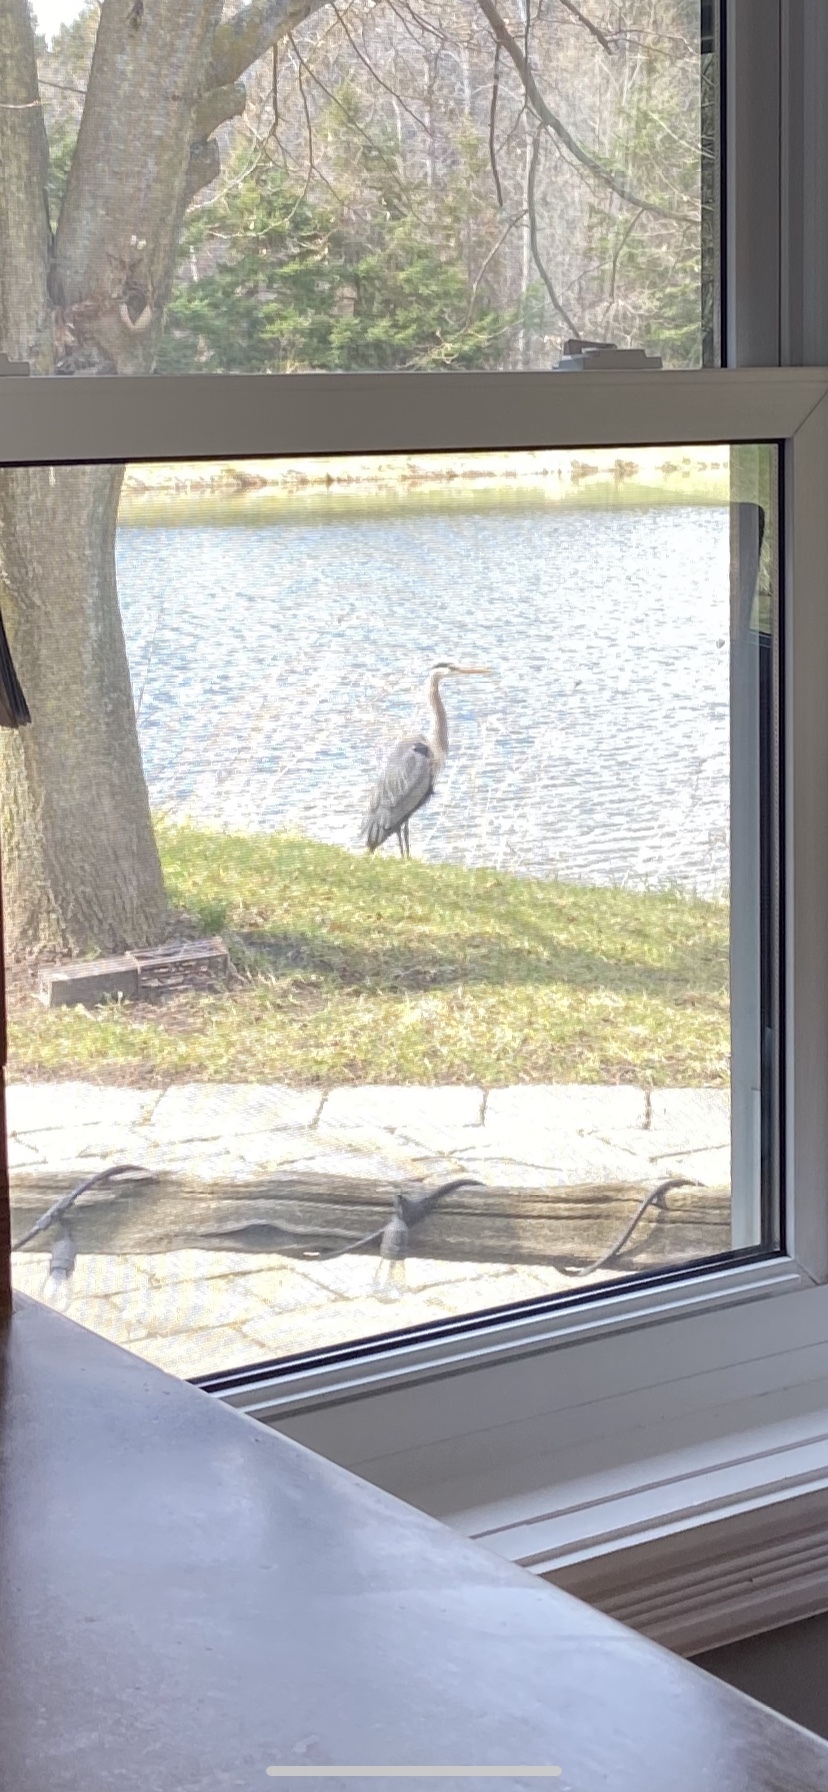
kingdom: Animalia
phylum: Chordata
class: Aves
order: Pelecaniformes
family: Ardeidae
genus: Ardea
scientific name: Ardea herodias
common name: Great blue heron
